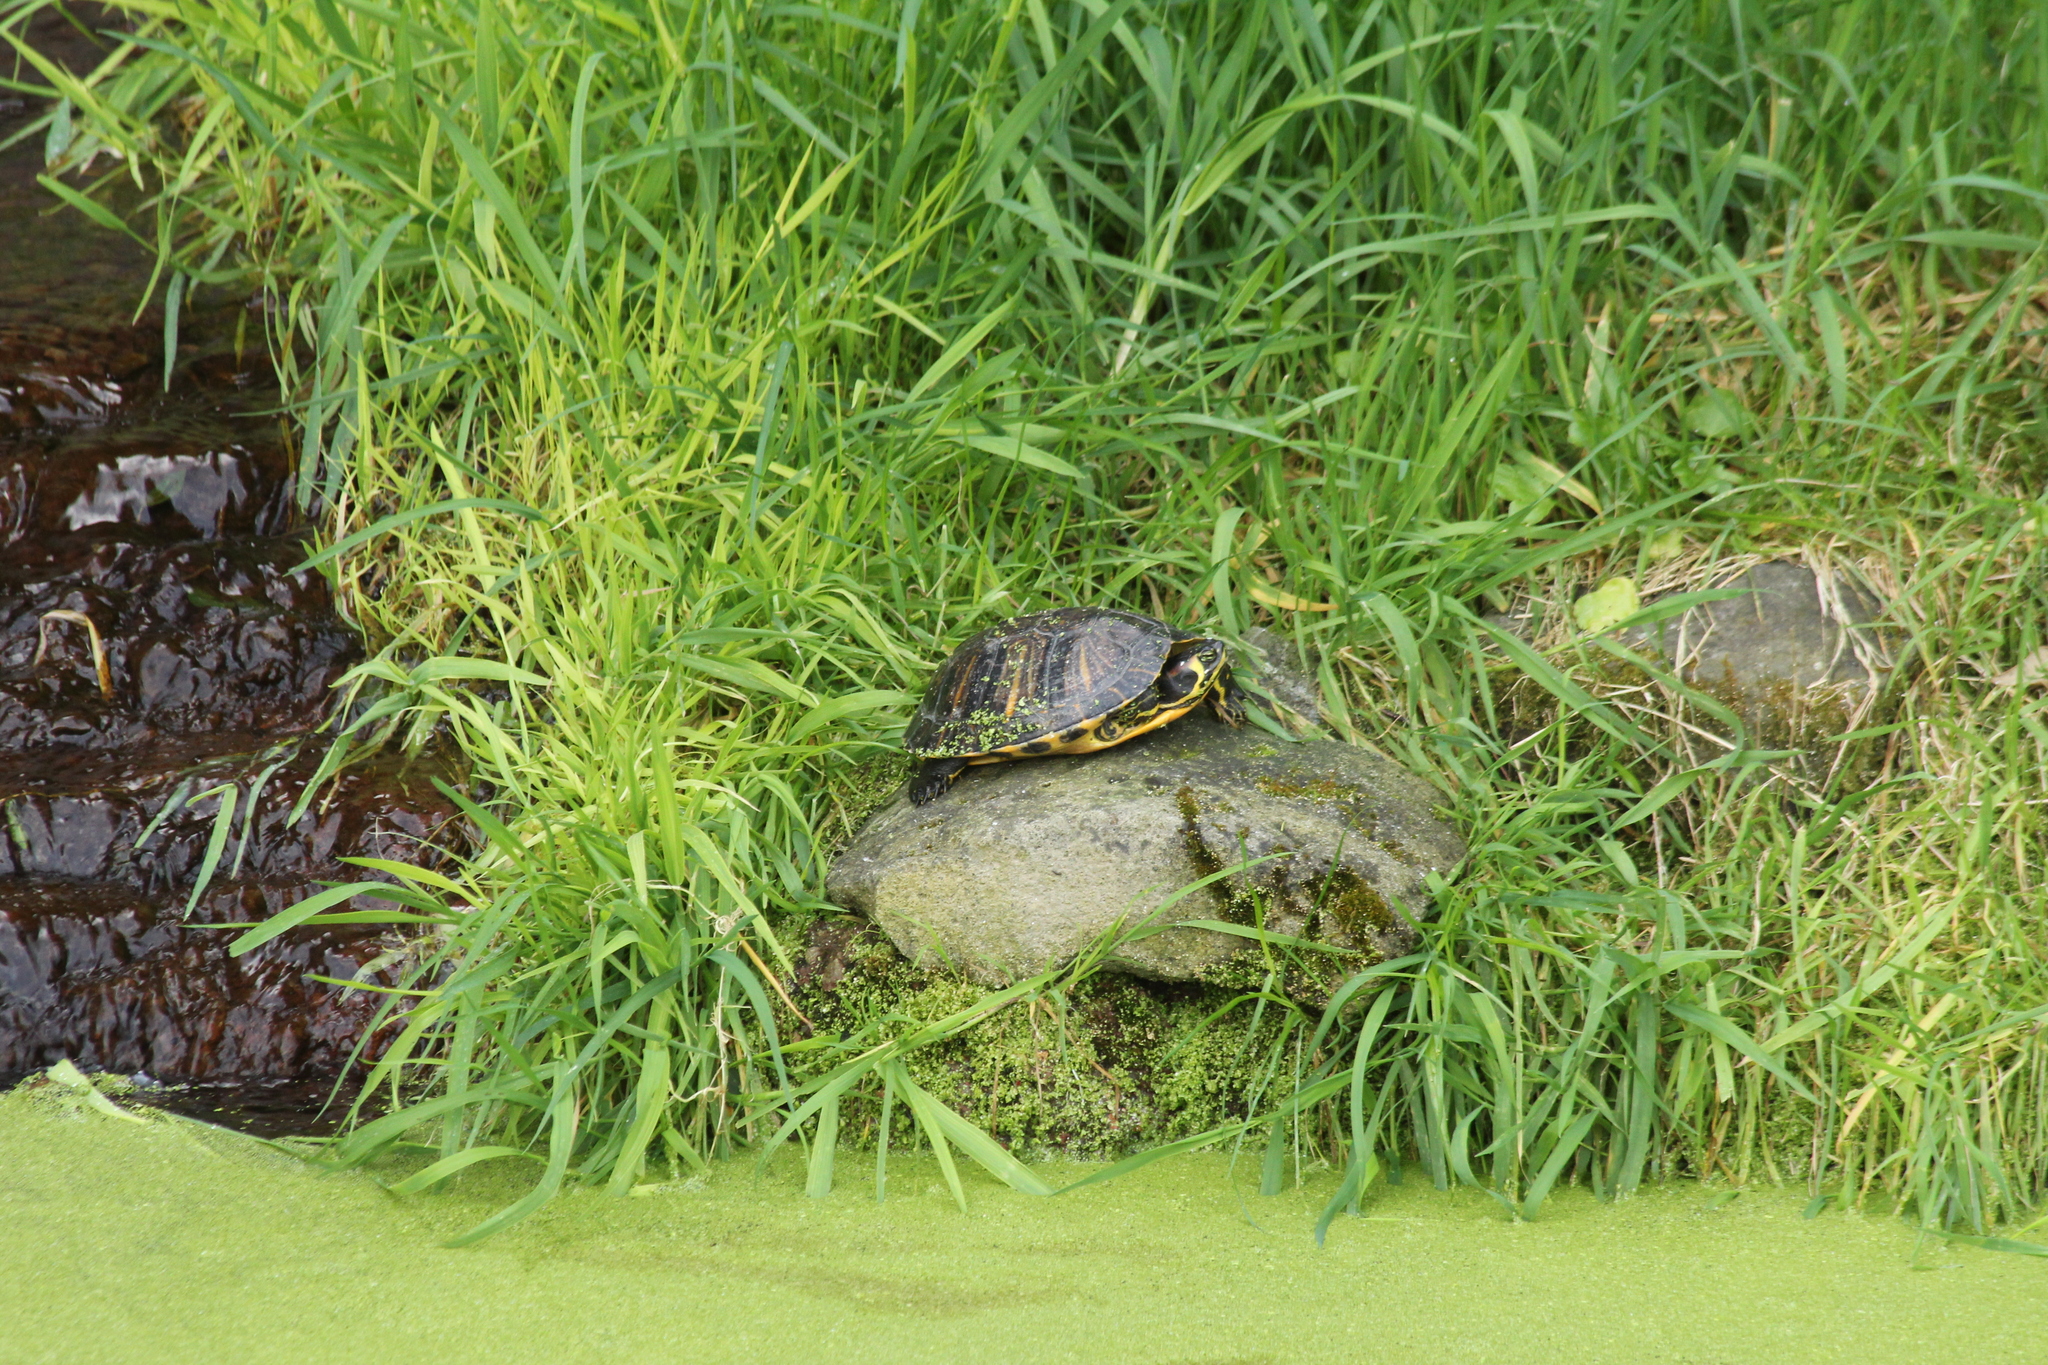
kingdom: Animalia
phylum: Chordata
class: Testudines
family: Emydidae
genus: Trachemys
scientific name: Trachemys scripta
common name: Slider
